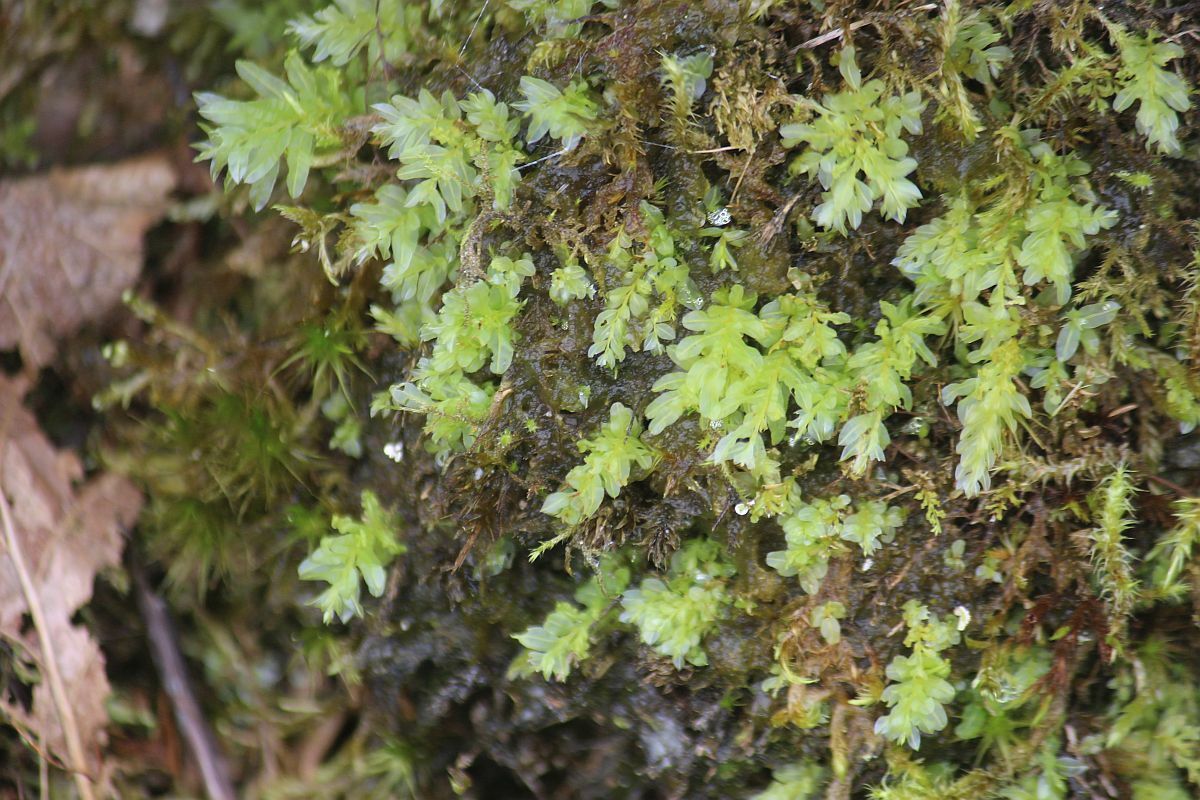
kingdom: Plantae
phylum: Bryophyta
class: Bryopsida
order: Bryales
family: Mniaceae
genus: Plagiomnium
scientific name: Plagiomnium undulatum
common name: Hart's-tongue thyme-moss
